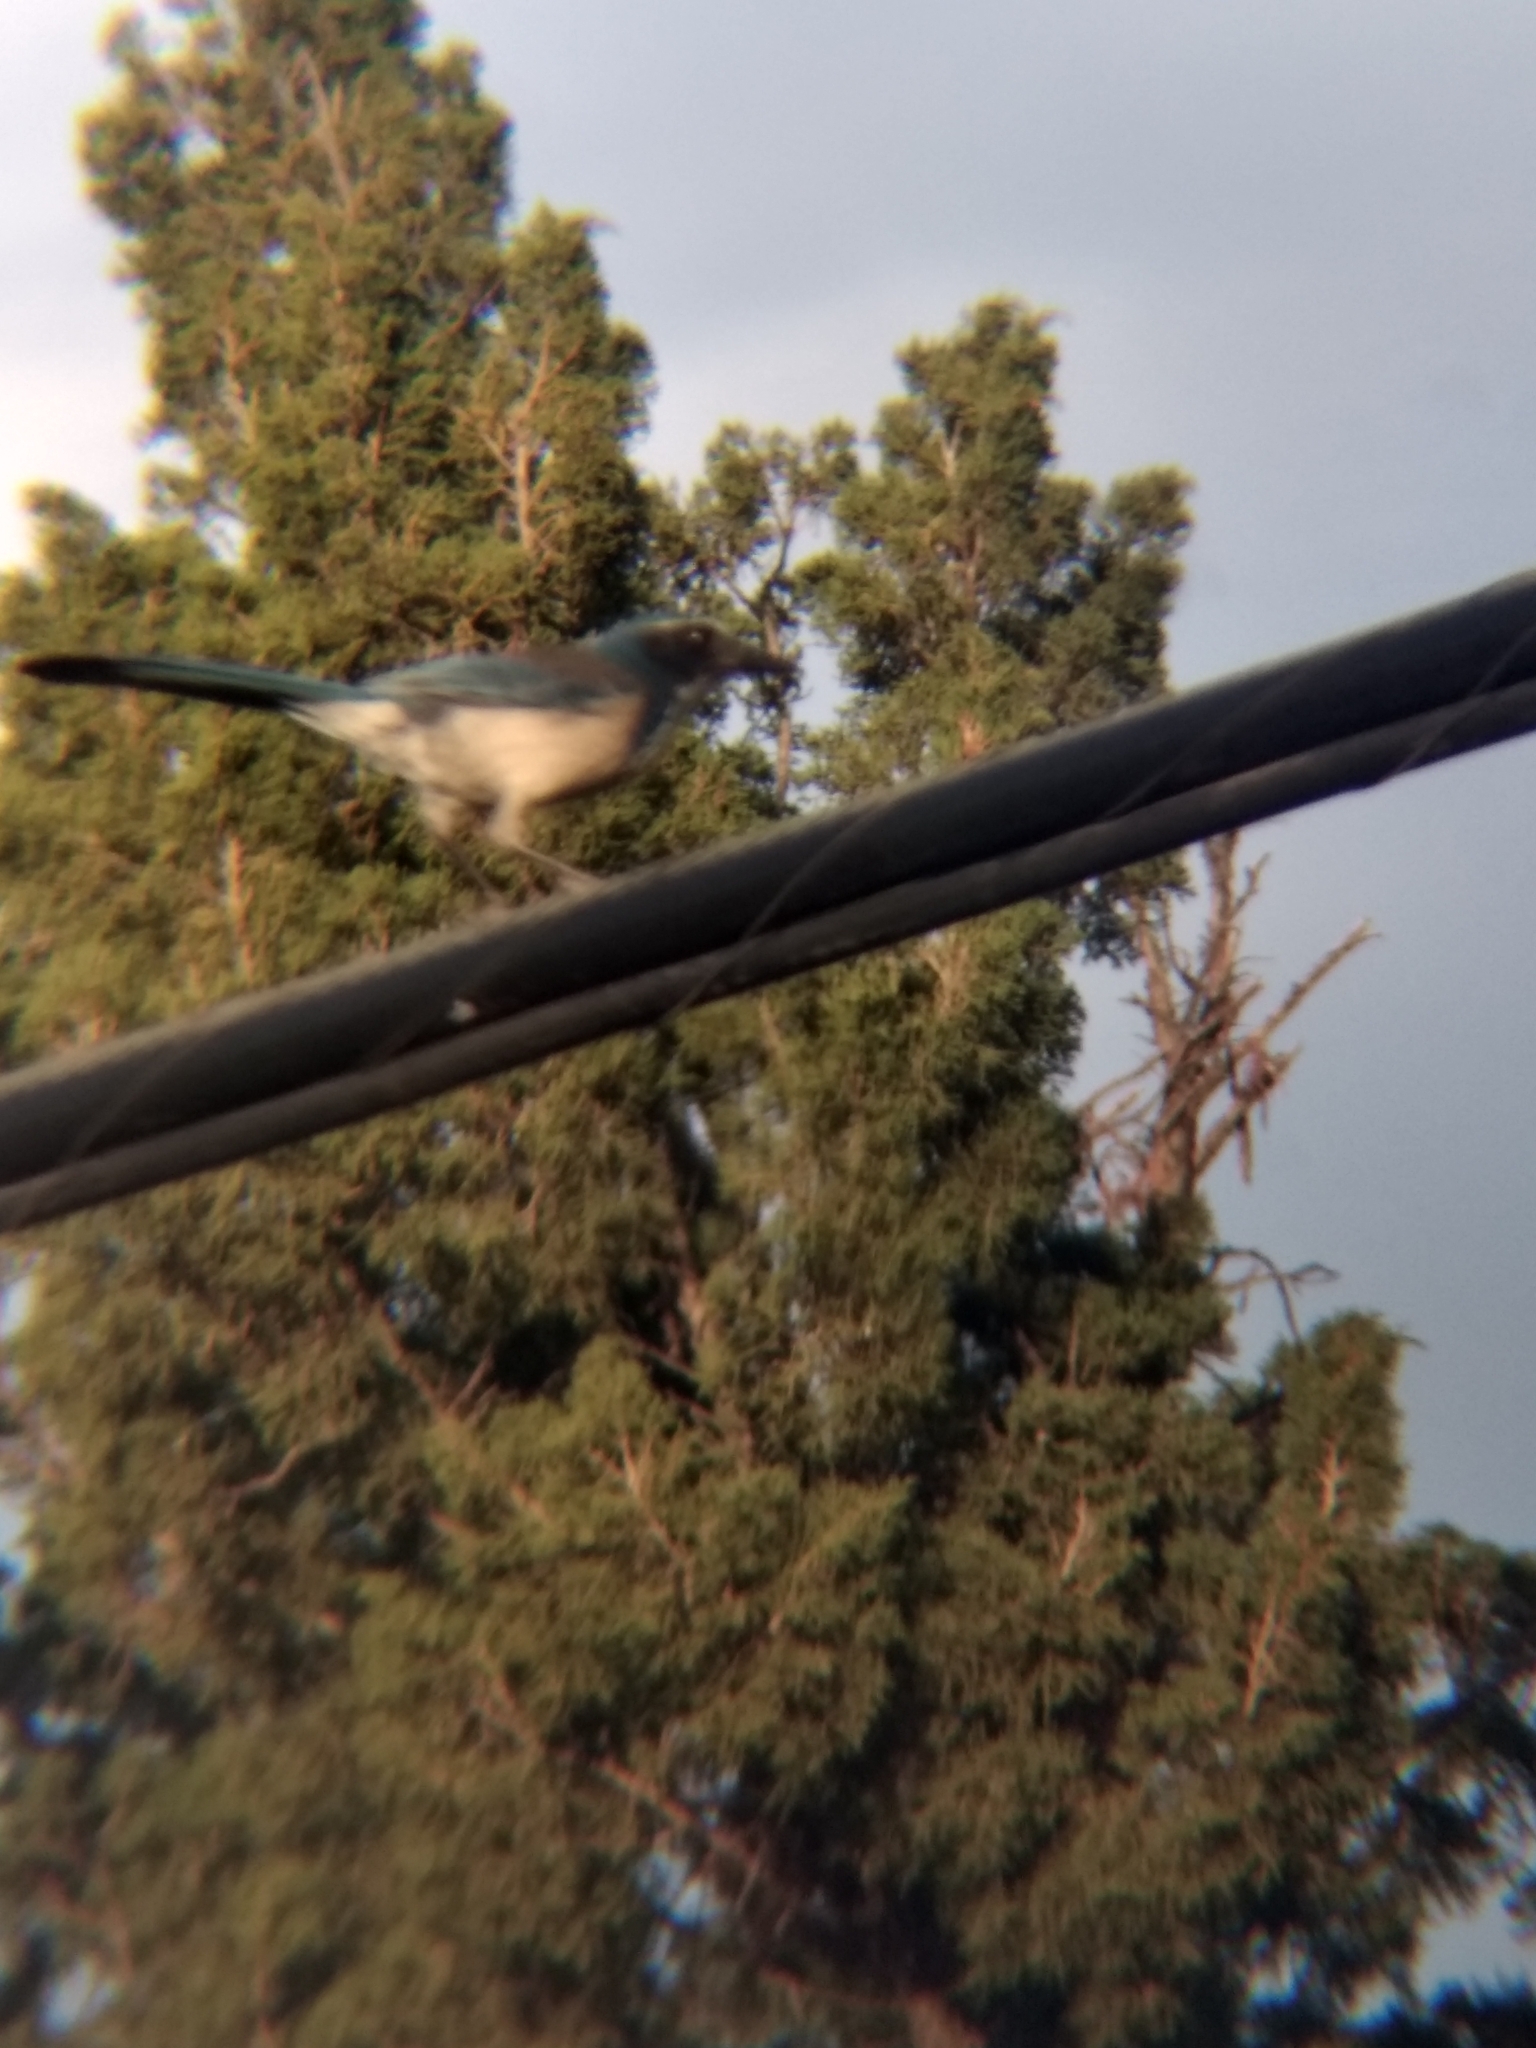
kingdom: Animalia
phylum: Chordata
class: Aves
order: Passeriformes
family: Corvidae
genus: Aphelocoma
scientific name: Aphelocoma californica
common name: California scrub-jay
